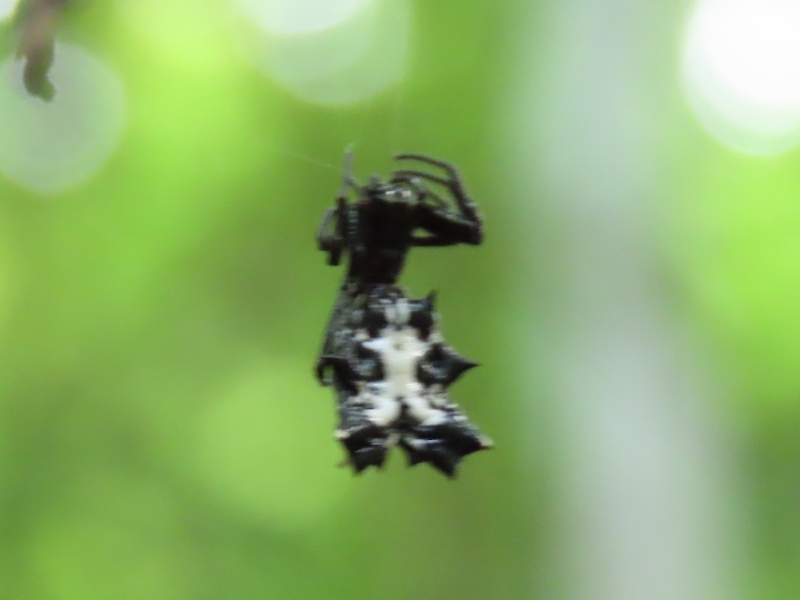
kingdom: Animalia
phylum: Arthropoda
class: Arachnida
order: Araneae
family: Araneidae
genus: Micrathena
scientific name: Micrathena gracilis
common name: Orb weavers
